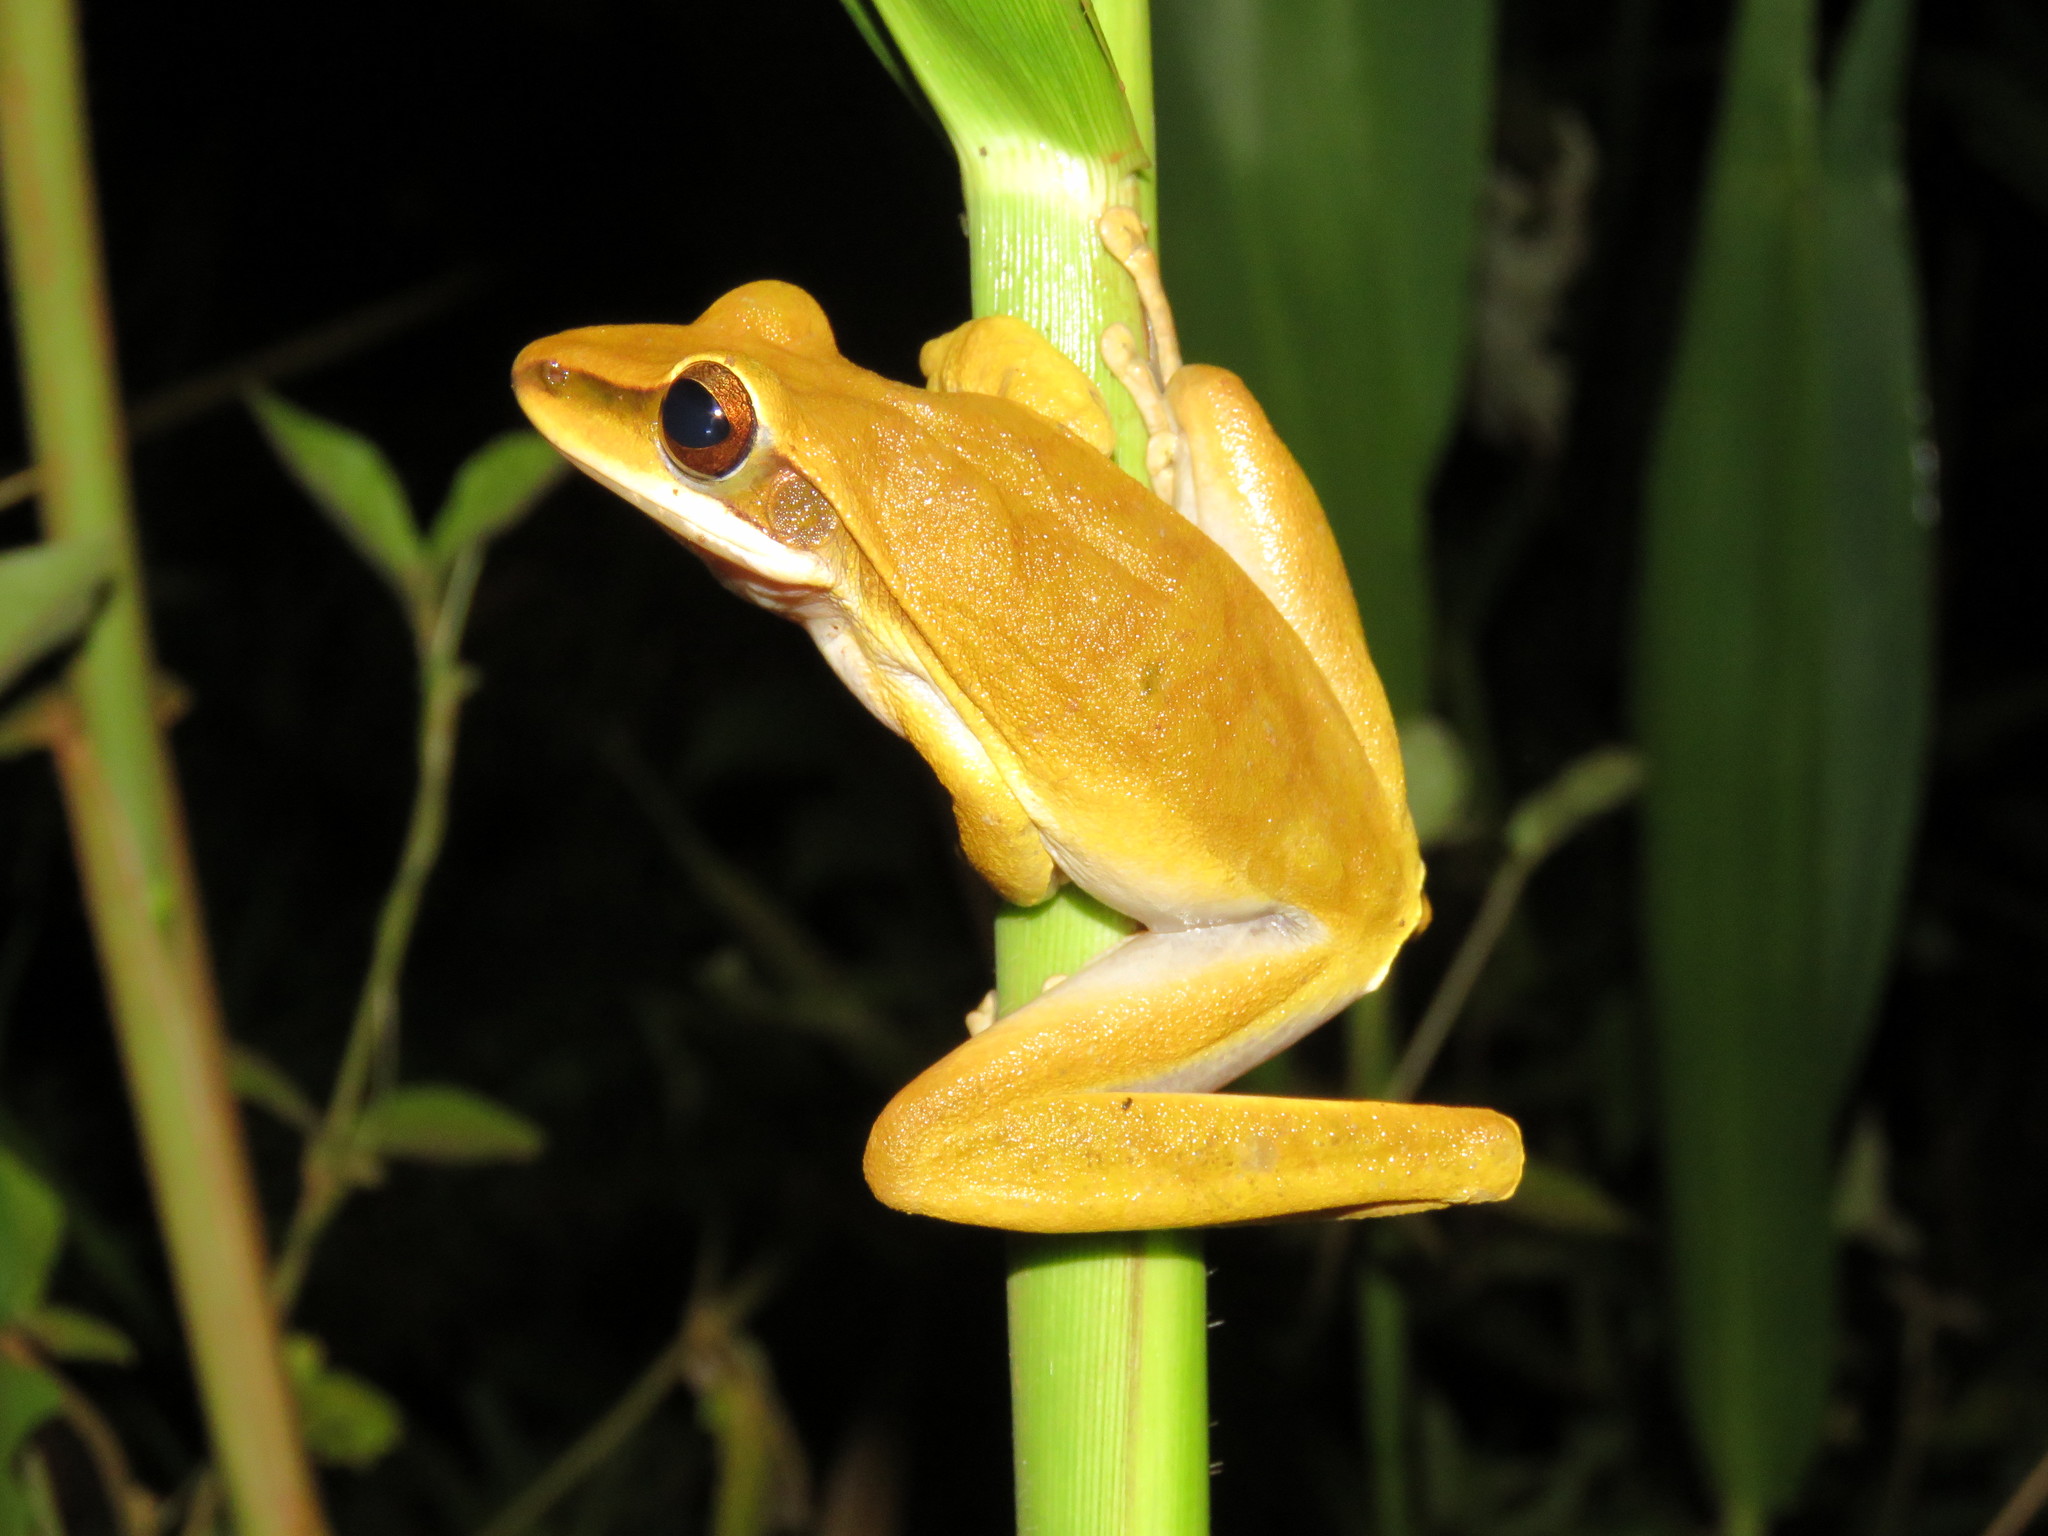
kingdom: Animalia
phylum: Chordata
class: Amphibia
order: Anura
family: Hylidae
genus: Boana
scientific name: Boana lanciformis
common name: Rana lanceolada commún
